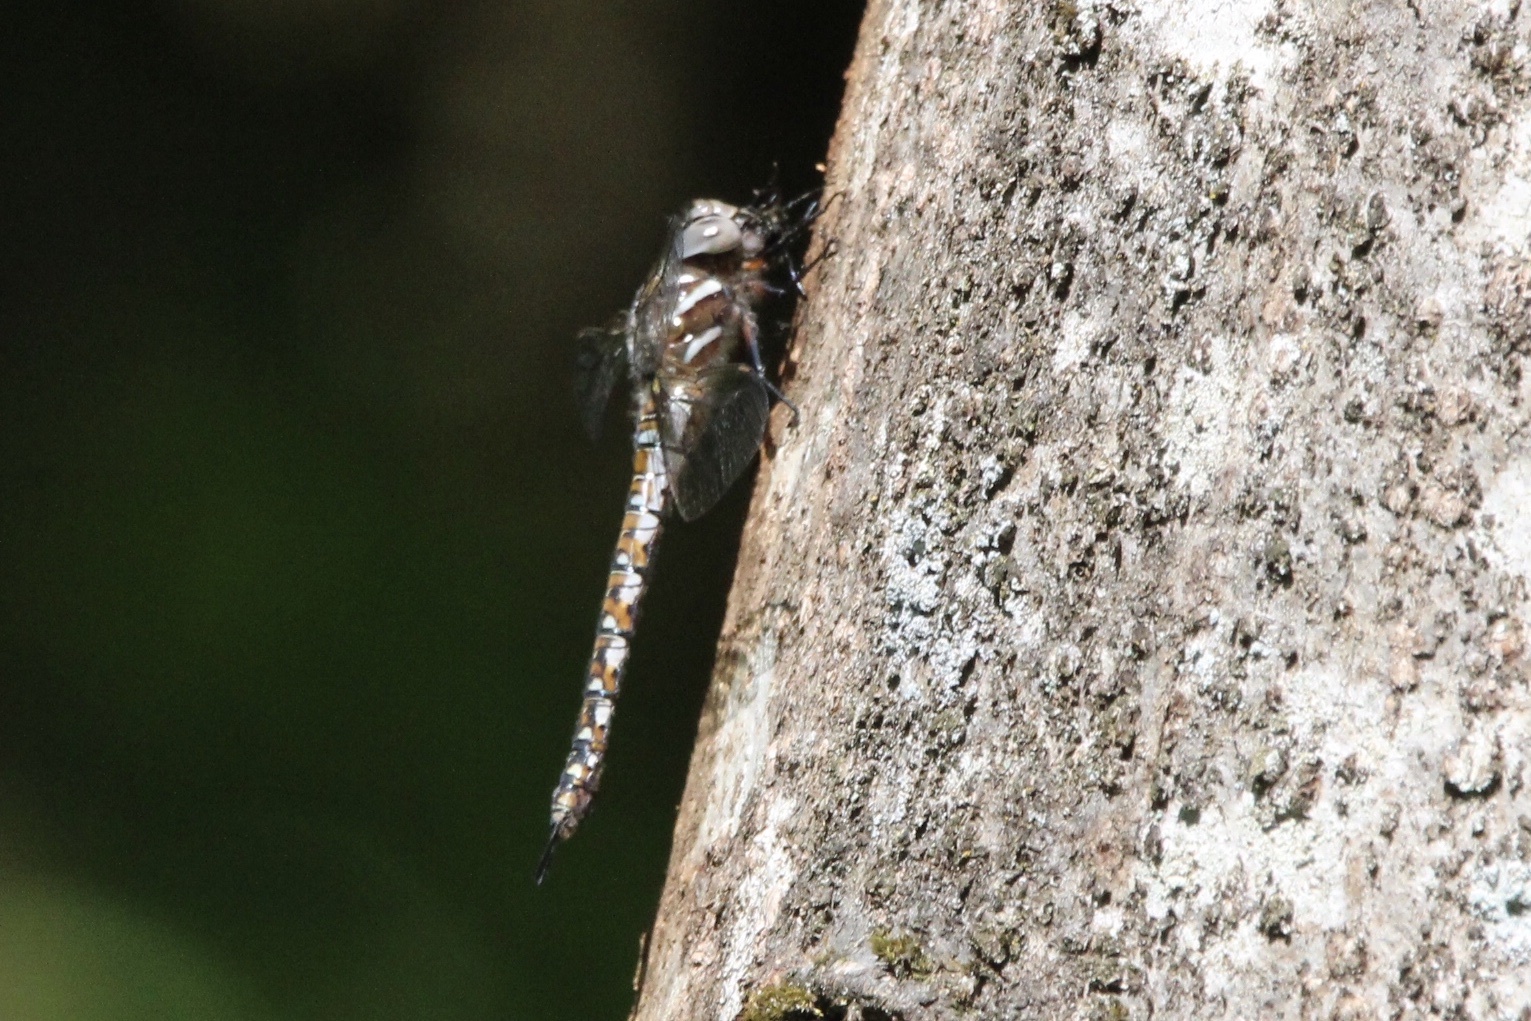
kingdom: Animalia
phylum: Arthropoda
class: Insecta
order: Odonata
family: Aeshnidae
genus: Rhionaeschna
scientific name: Rhionaeschna californica
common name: California darner
